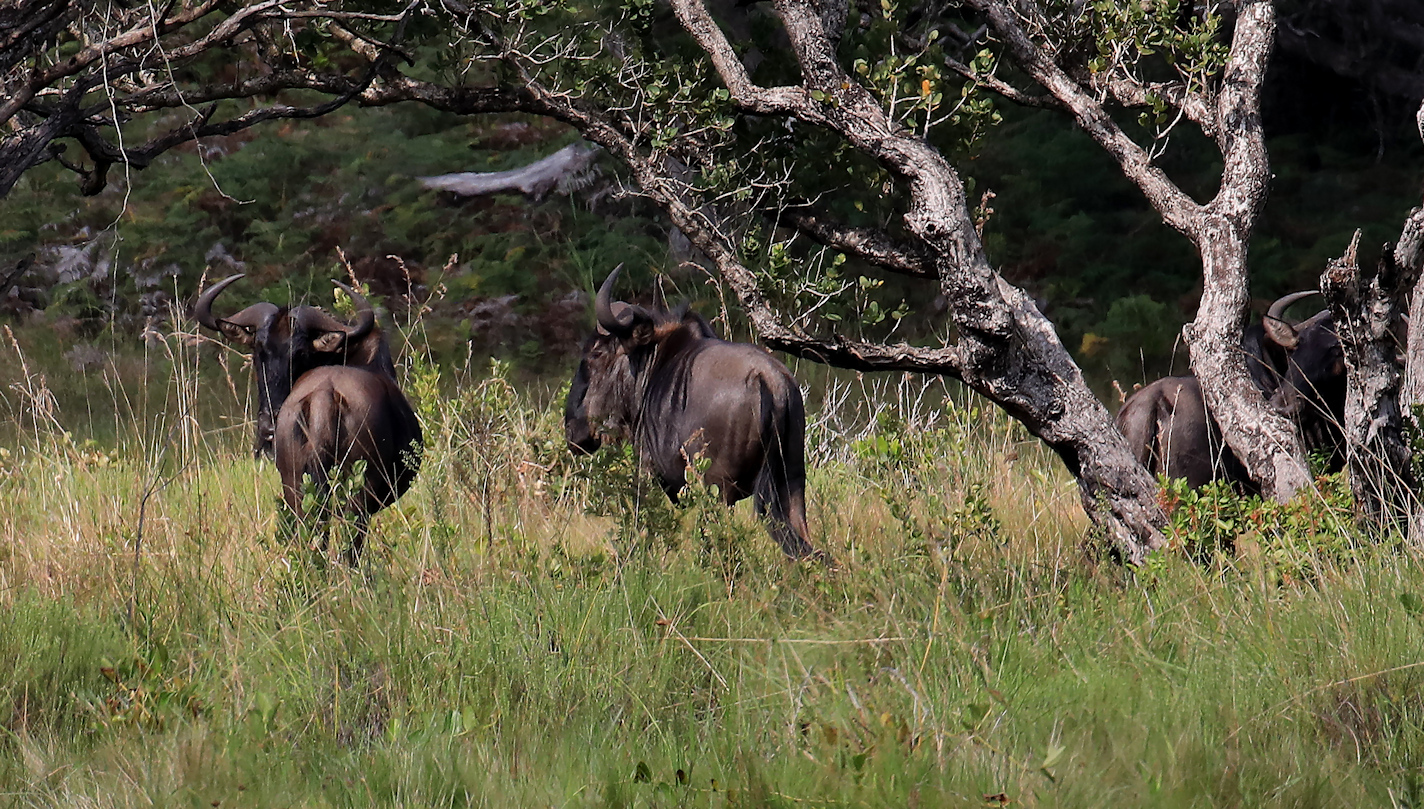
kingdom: Animalia
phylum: Chordata
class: Mammalia
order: Artiodactyla
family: Bovidae
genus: Connochaetes
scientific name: Connochaetes taurinus
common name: Blue wildebeest
